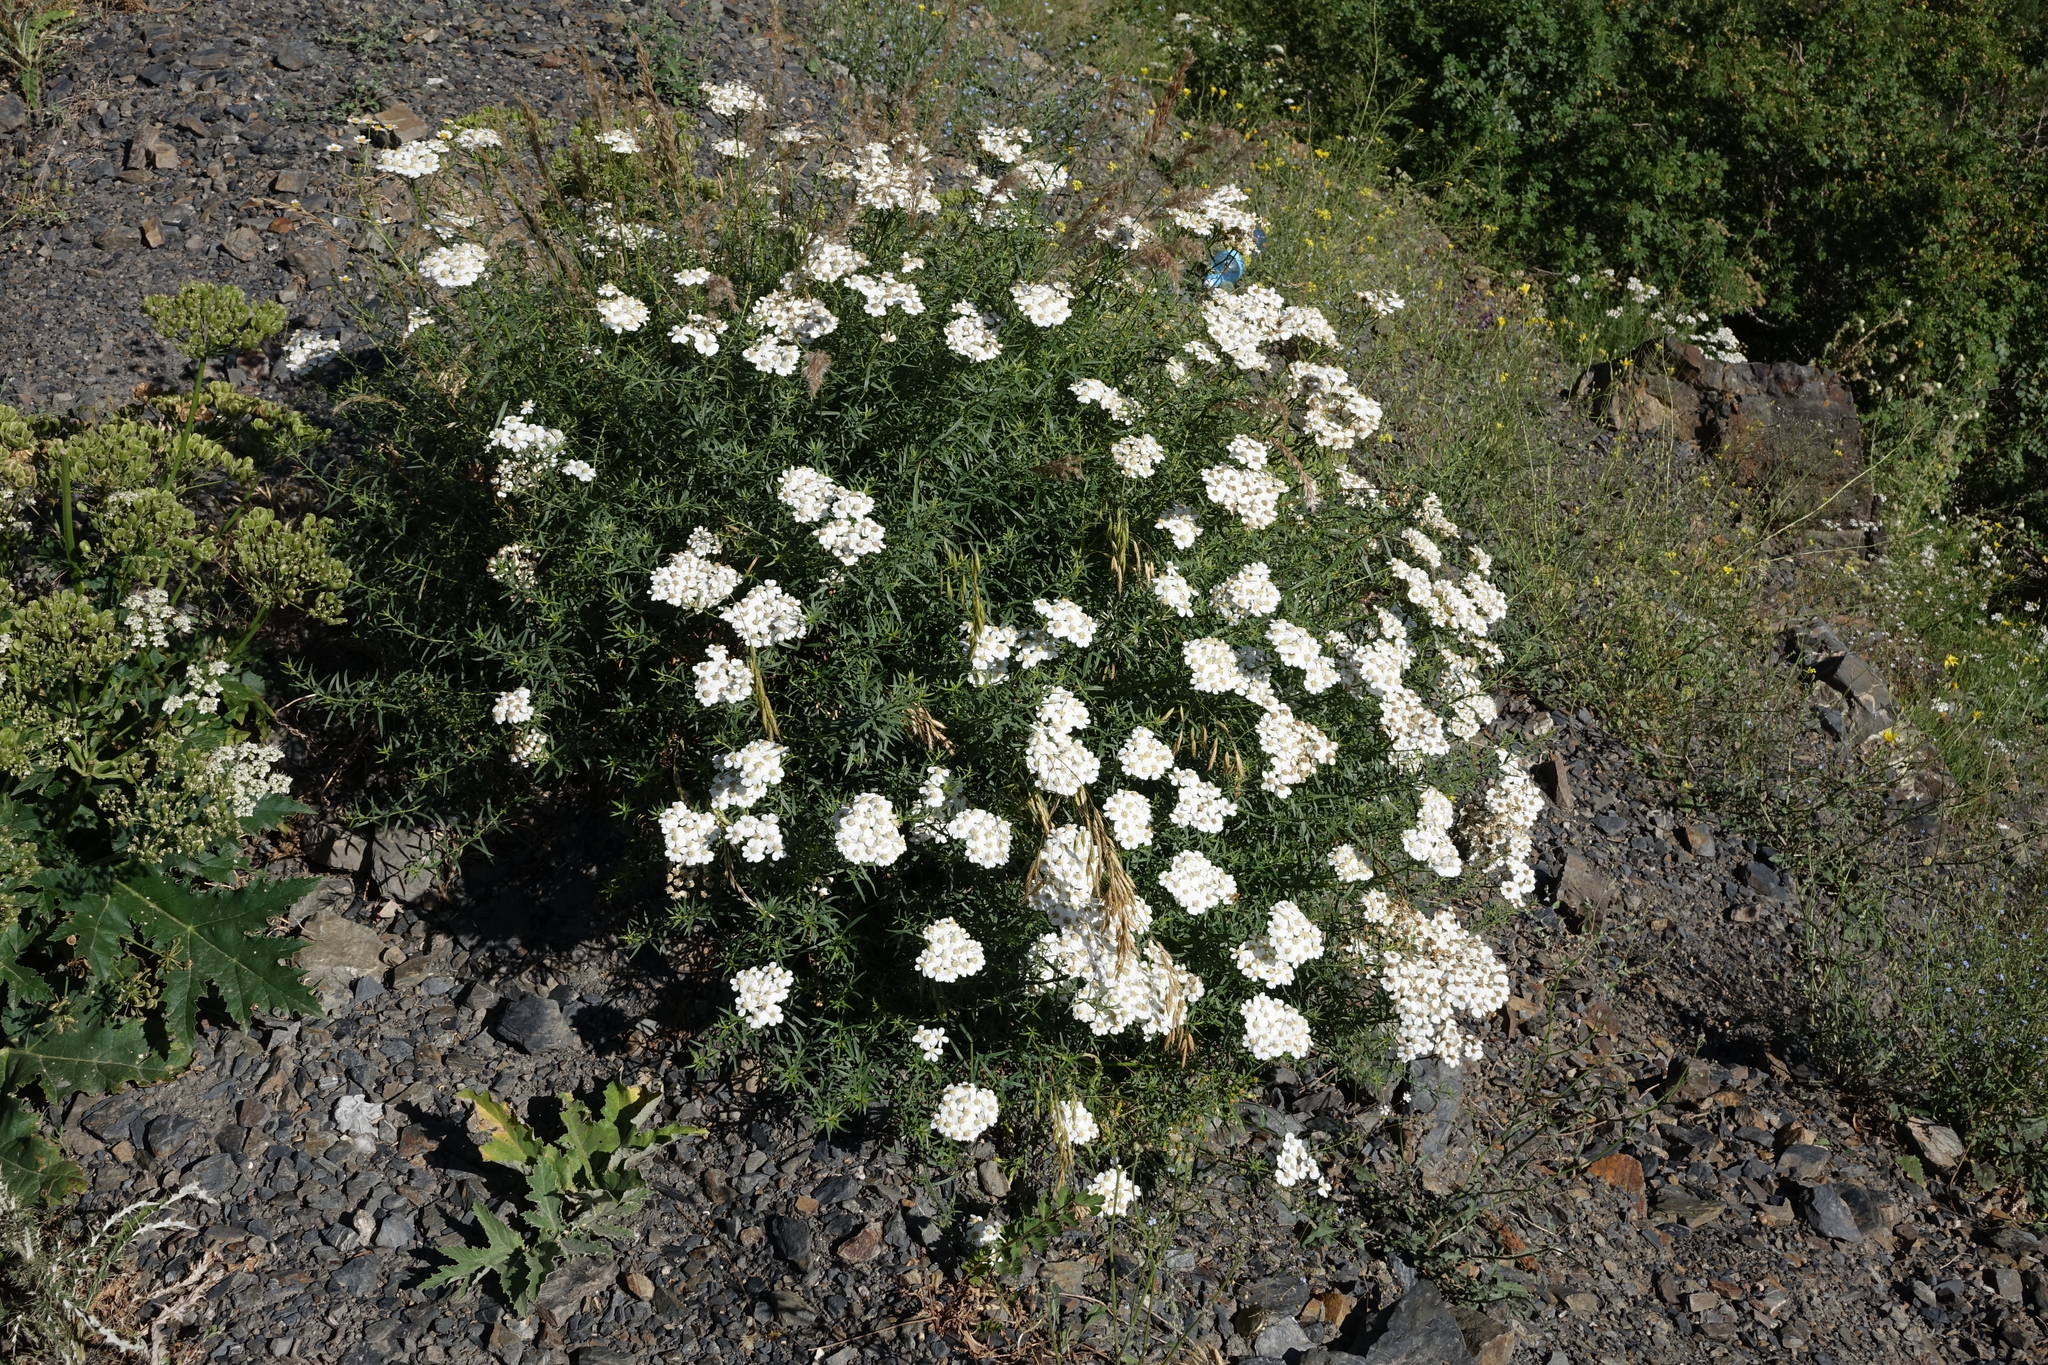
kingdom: Plantae
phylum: Tracheophyta
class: Magnoliopsida
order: Asterales
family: Asteraceae
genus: Achillea
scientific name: Achillea ptarmicifolia
